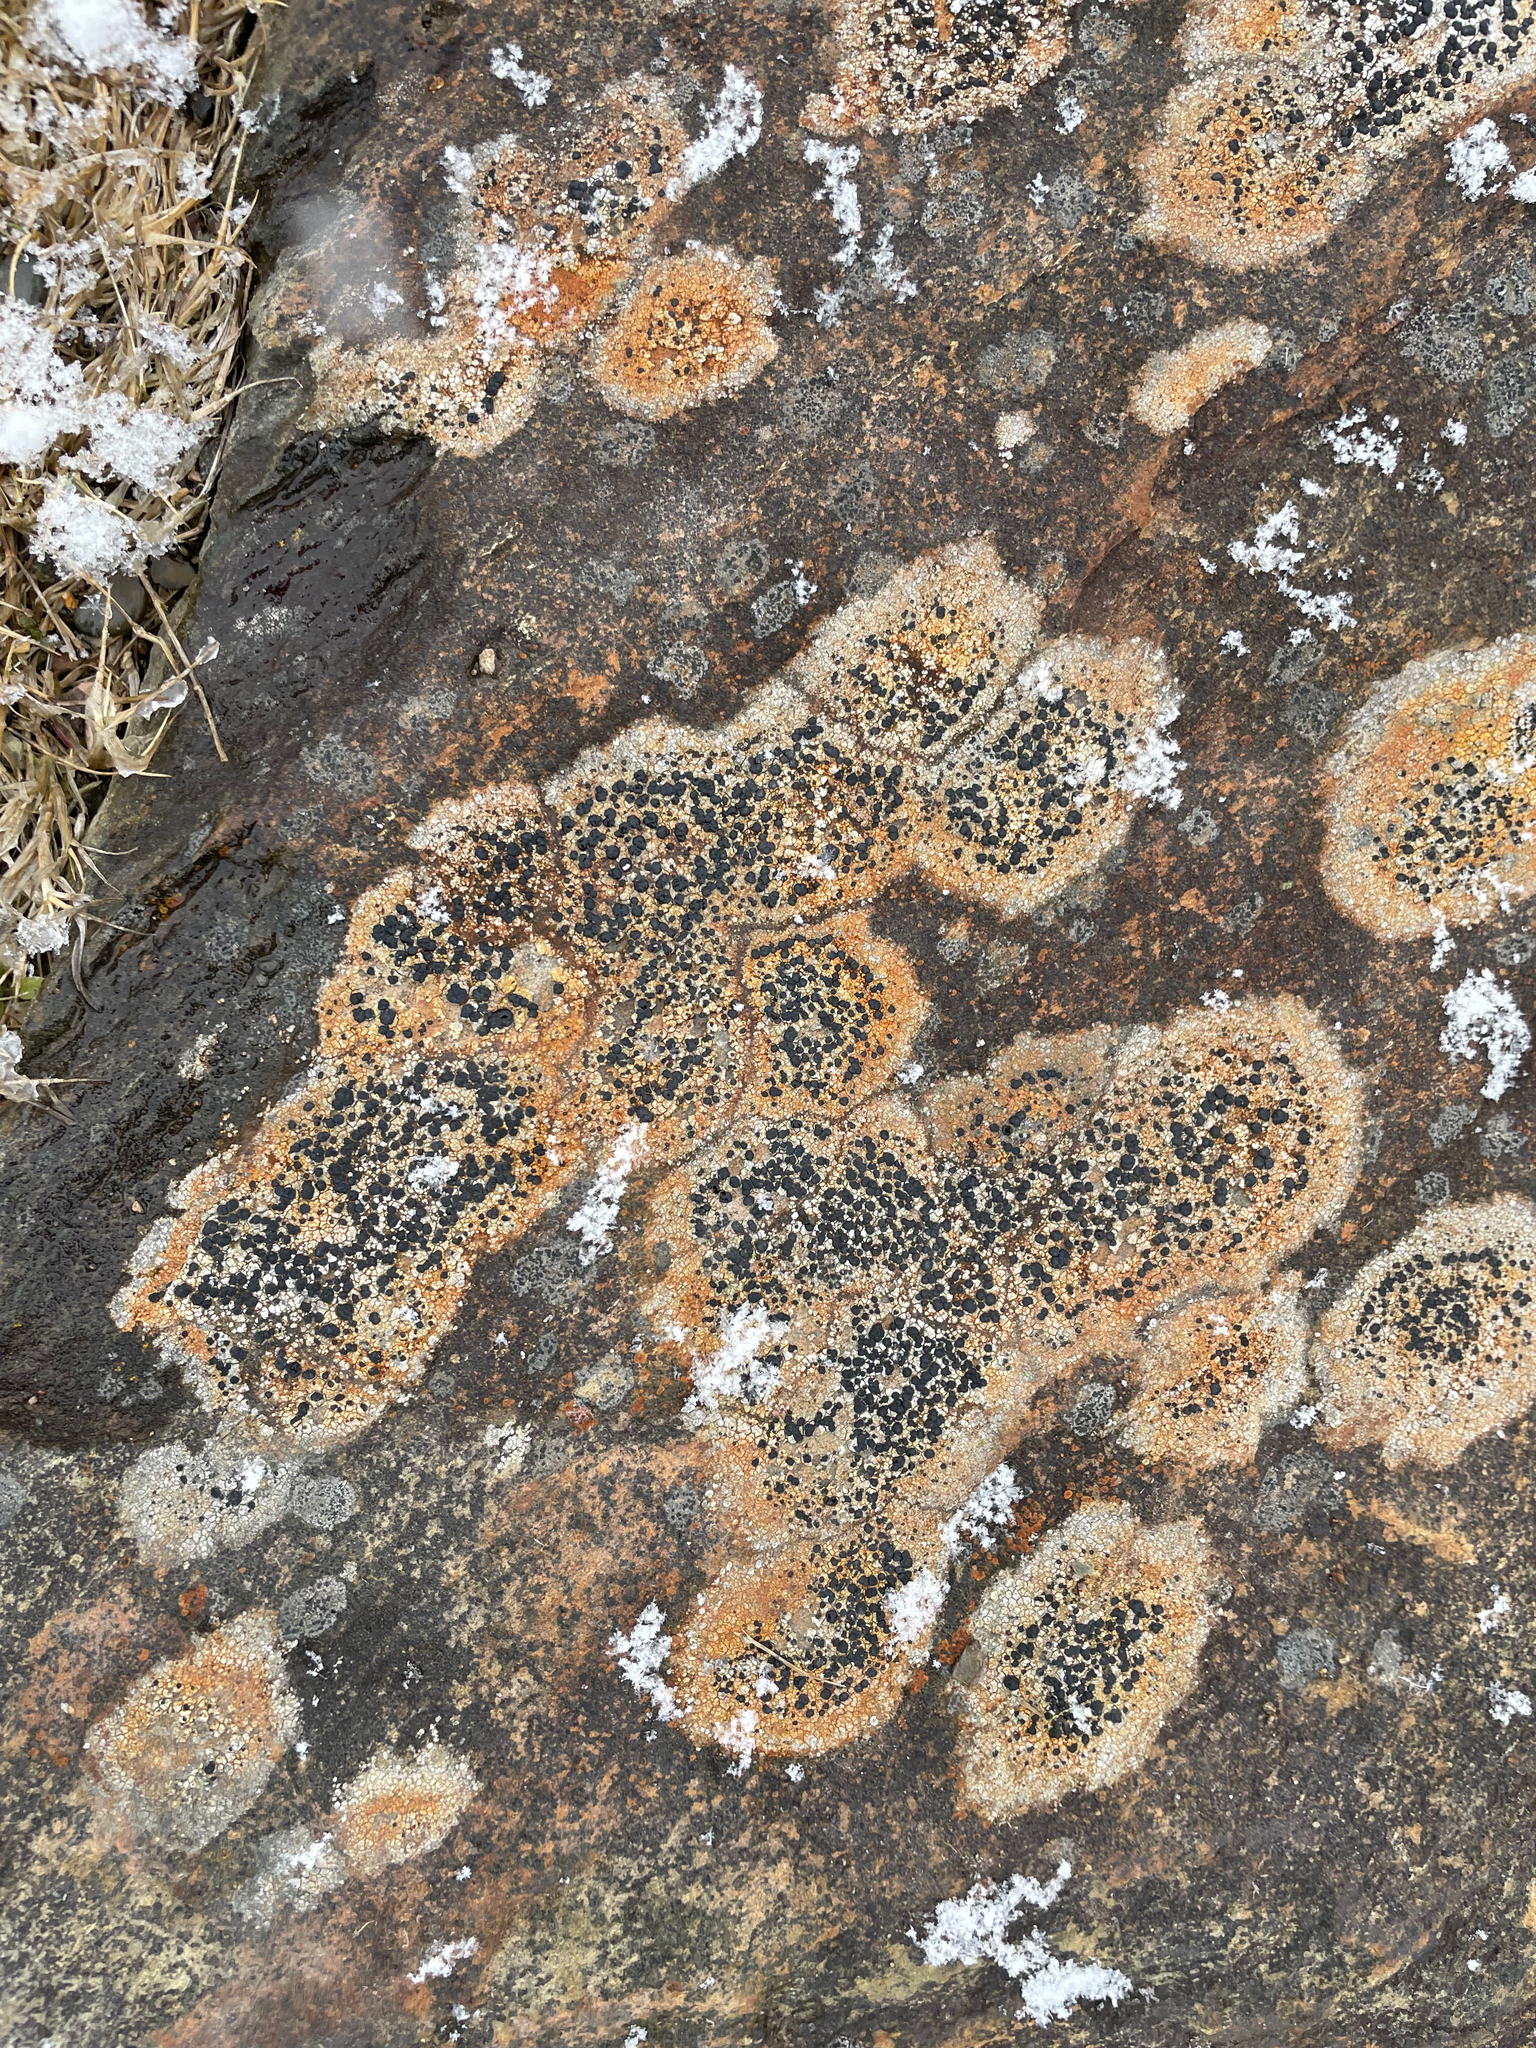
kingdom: Fungi
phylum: Ascomycota
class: Lecanoromycetes
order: Lecideales
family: Lecideaceae
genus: Porpidia
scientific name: Porpidia crustulata
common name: Concentric boulder lichen
